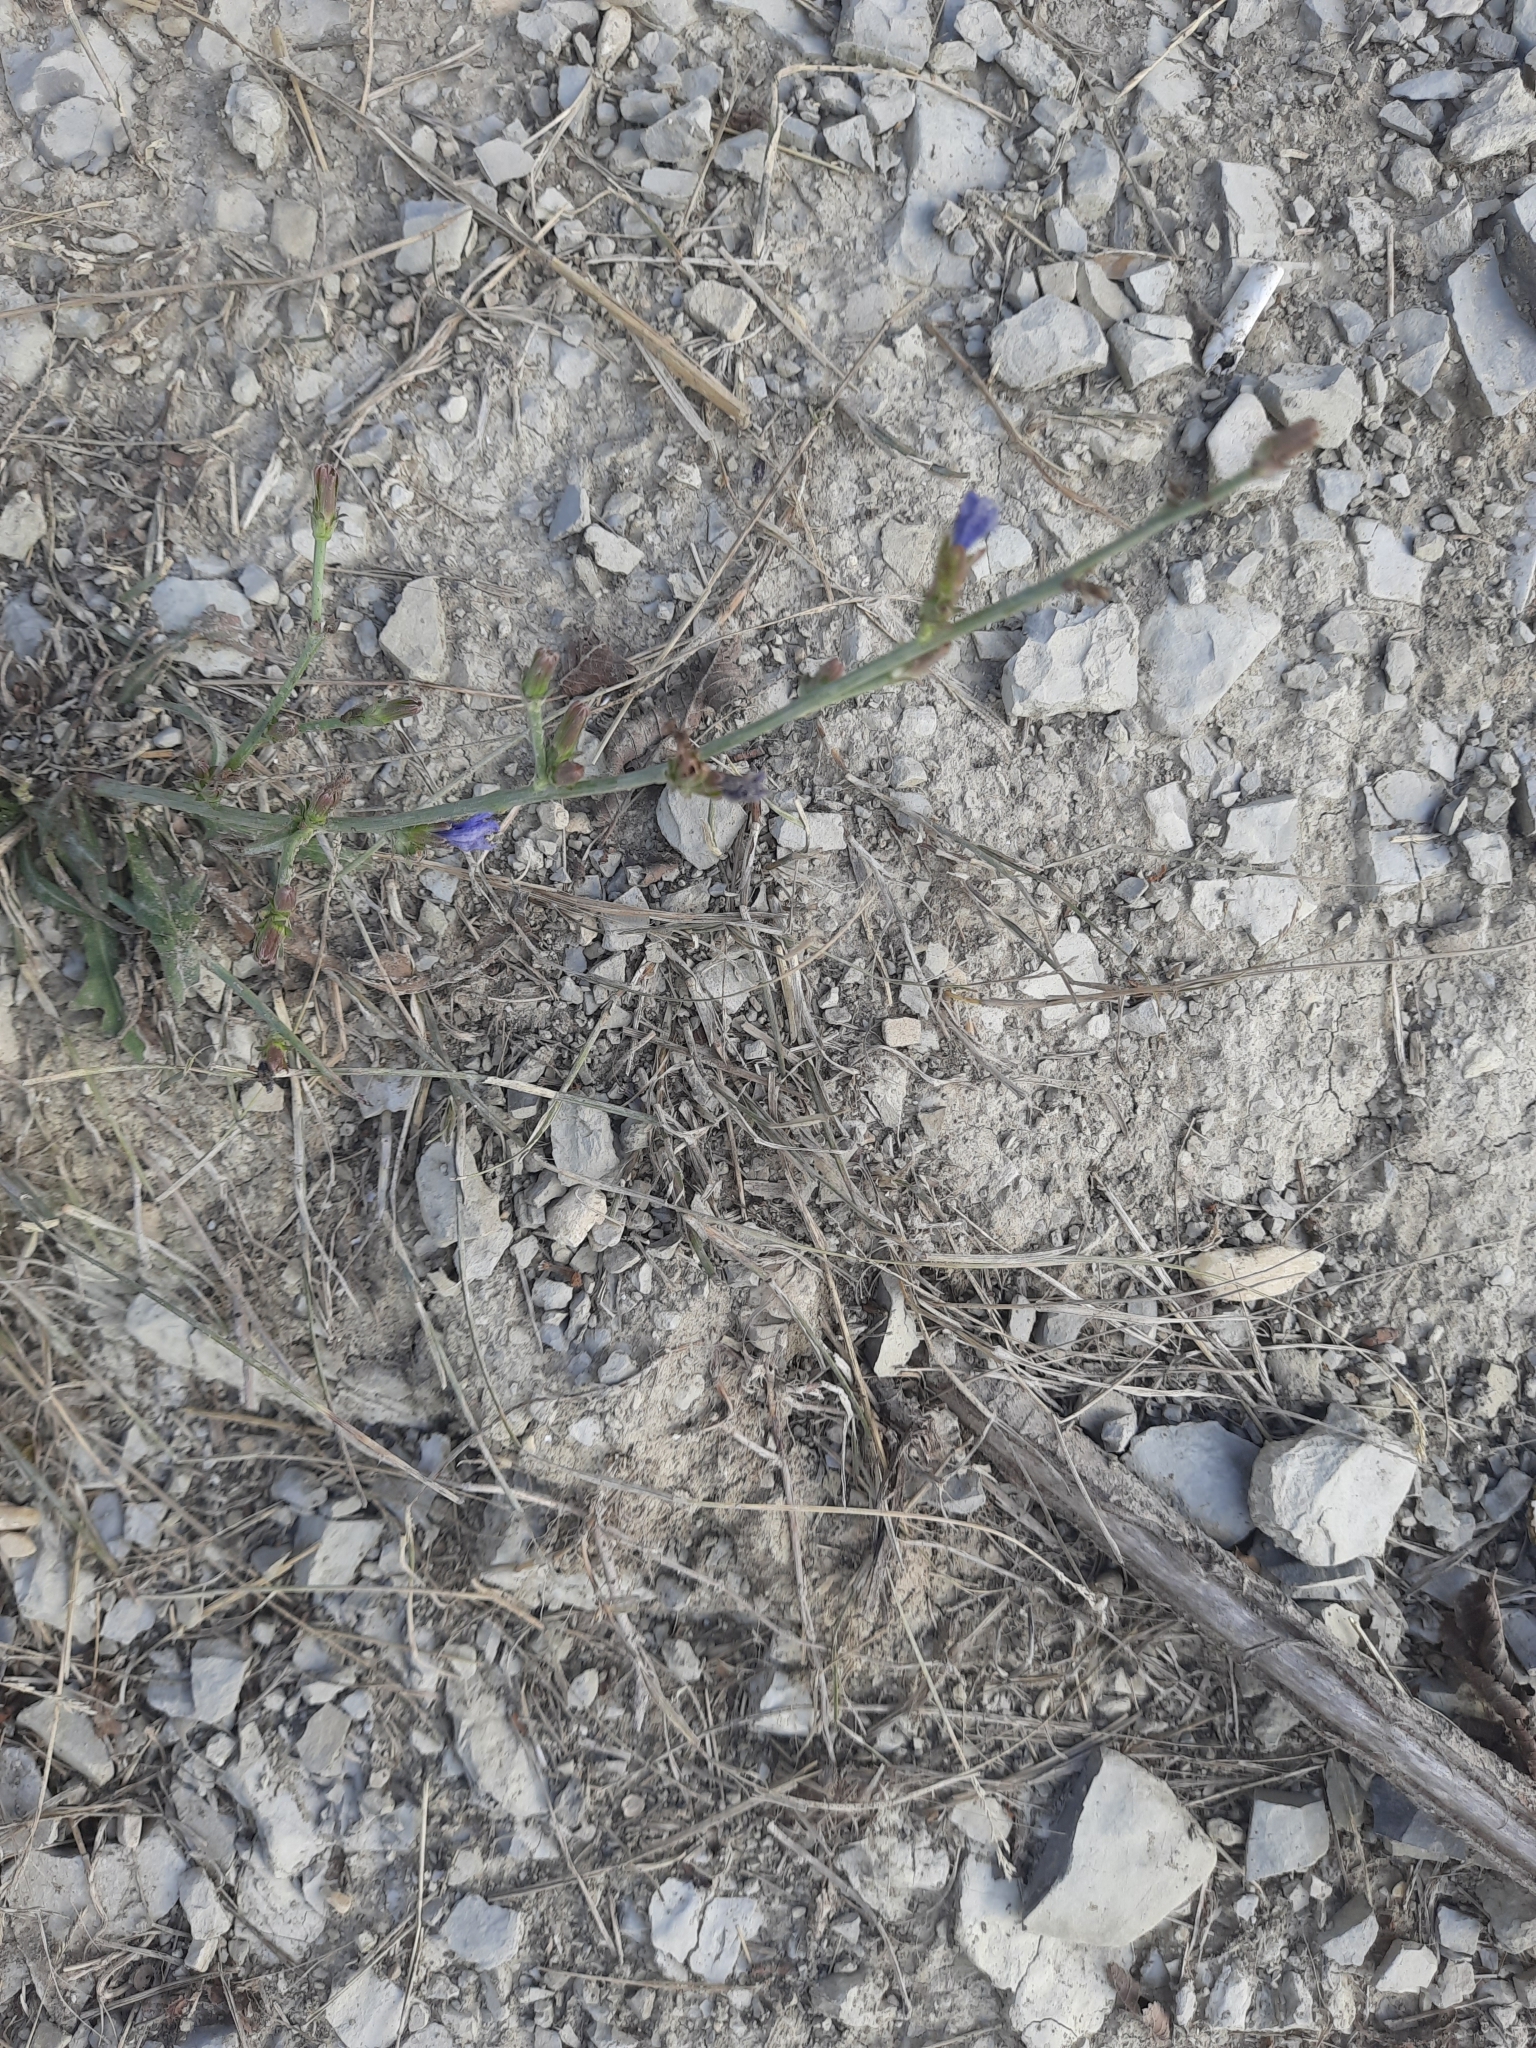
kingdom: Plantae
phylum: Tracheophyta
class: Magnoliopsida
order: Asterales
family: Asteraceae
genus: Cichorium
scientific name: Cichorium intybus
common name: Chicory
